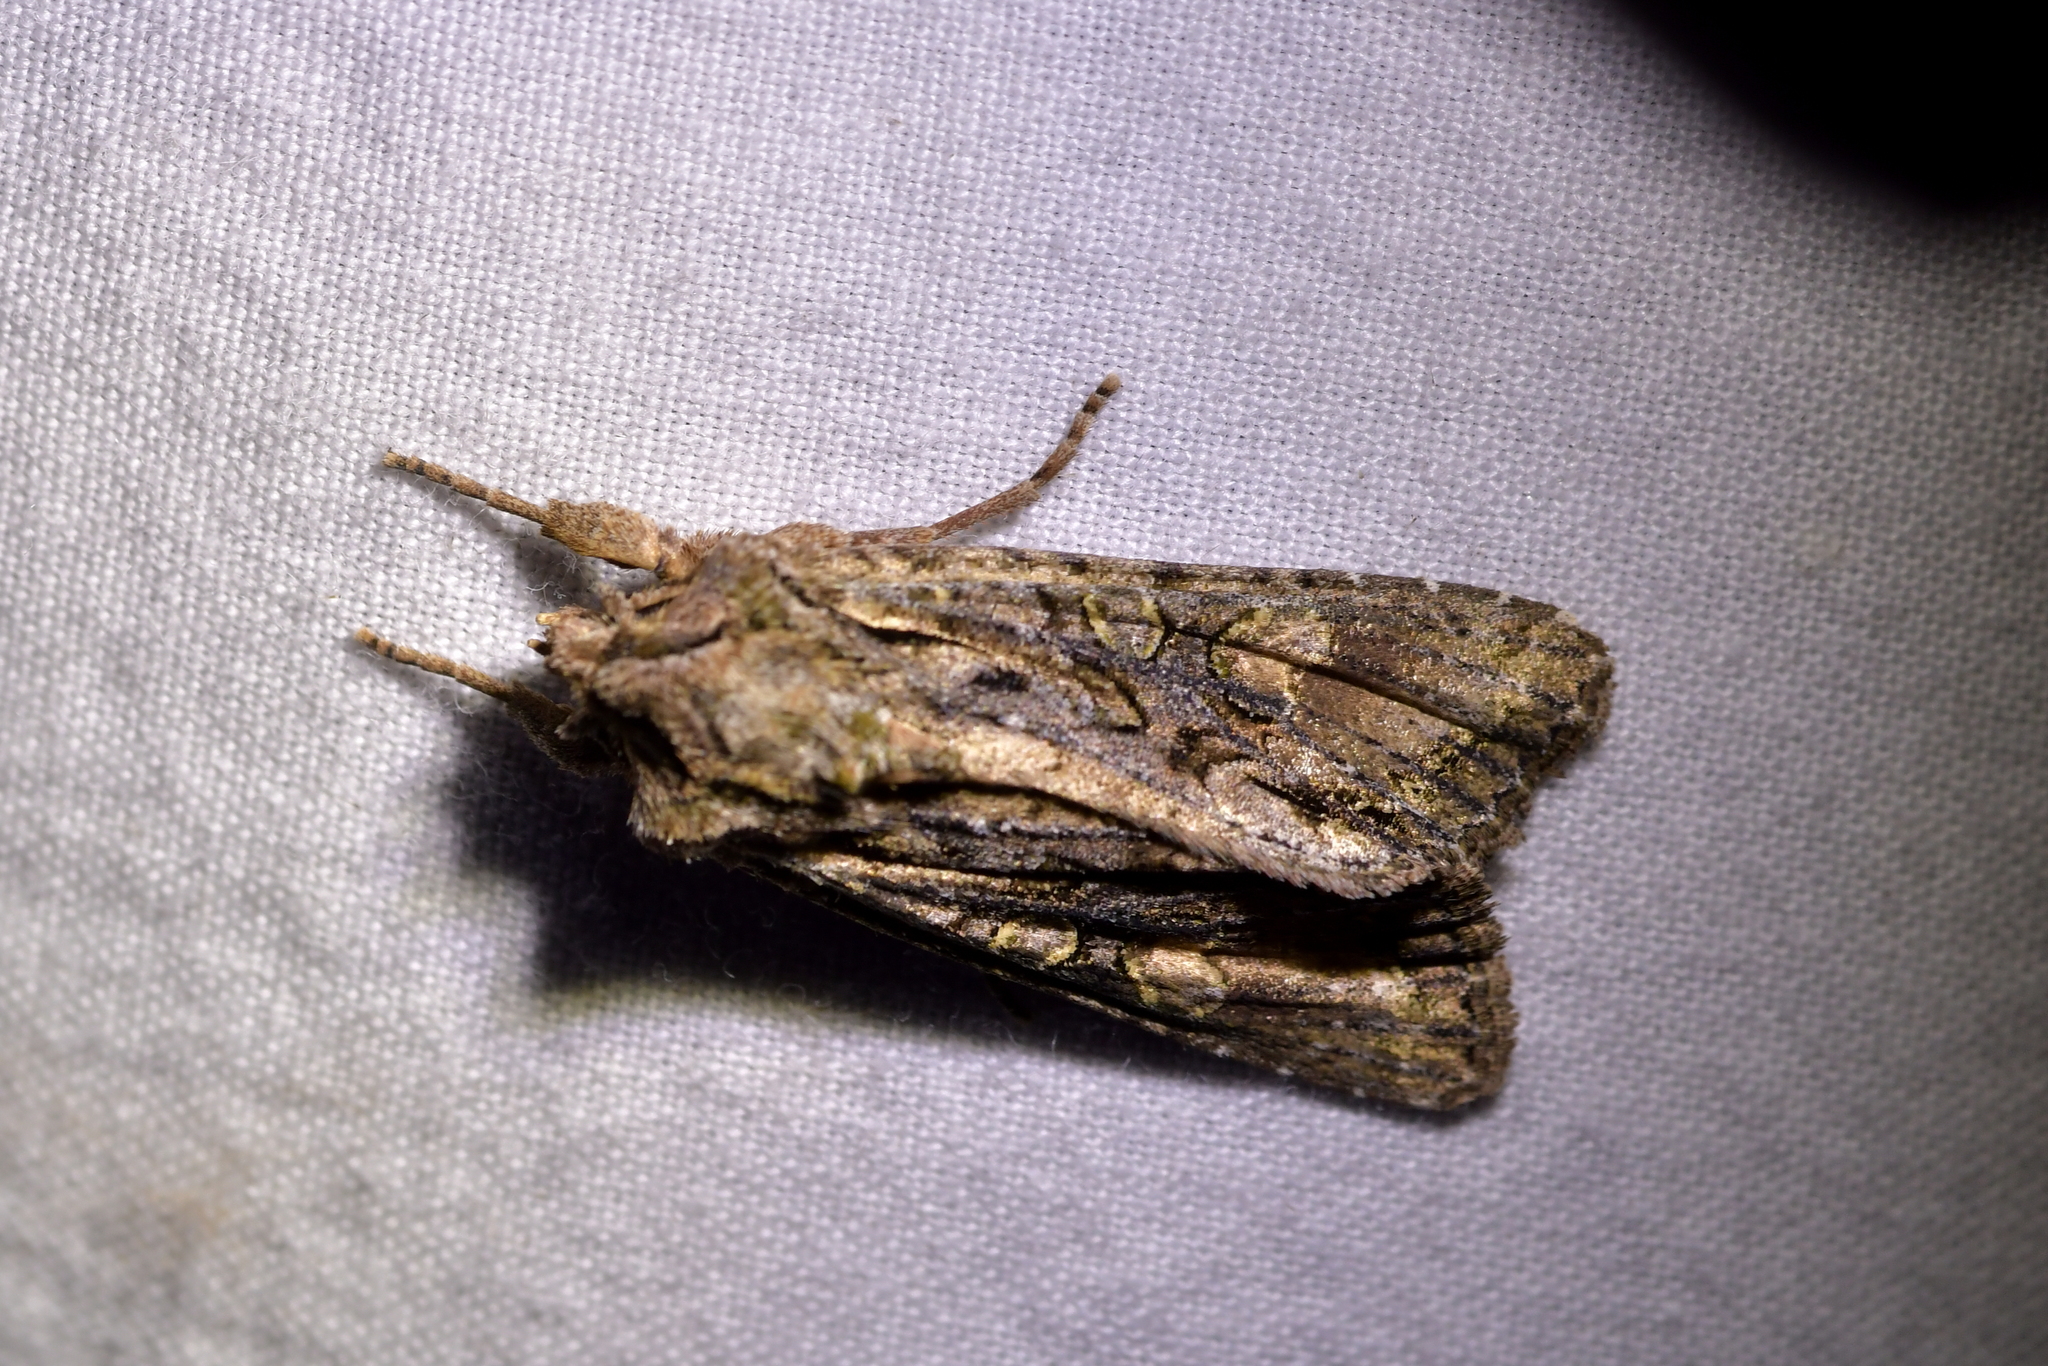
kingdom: Animalia
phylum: Arthropoda
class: Insecta
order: Lepidoptera
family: Noctuidae
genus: Ichneutica
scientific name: Ichneutica mutans
